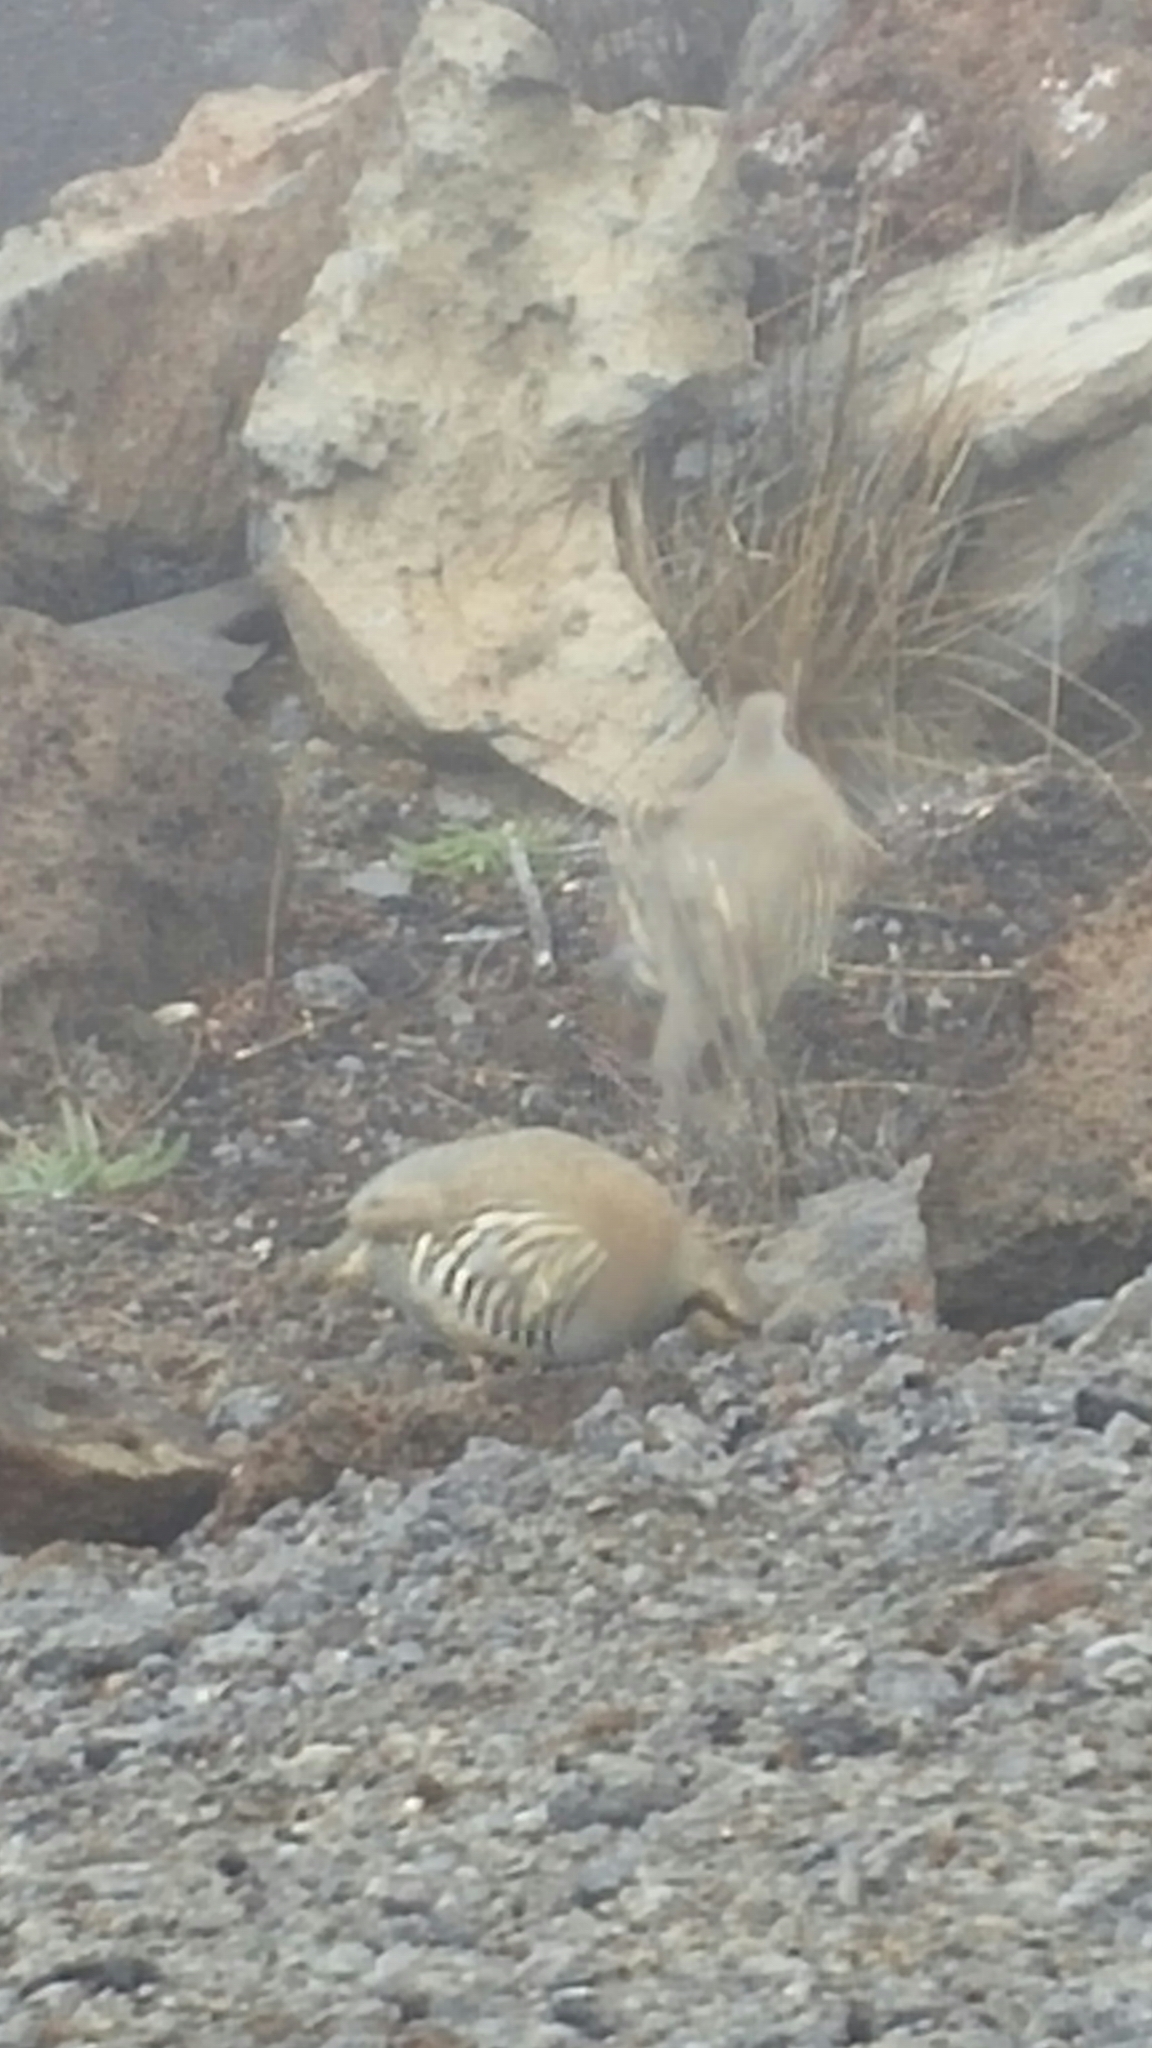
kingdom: Animalia
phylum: Chordata
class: Aves
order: Galliformes
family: Phasianidae
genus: Alectoris
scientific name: Alectoris chukar
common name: Chukar
